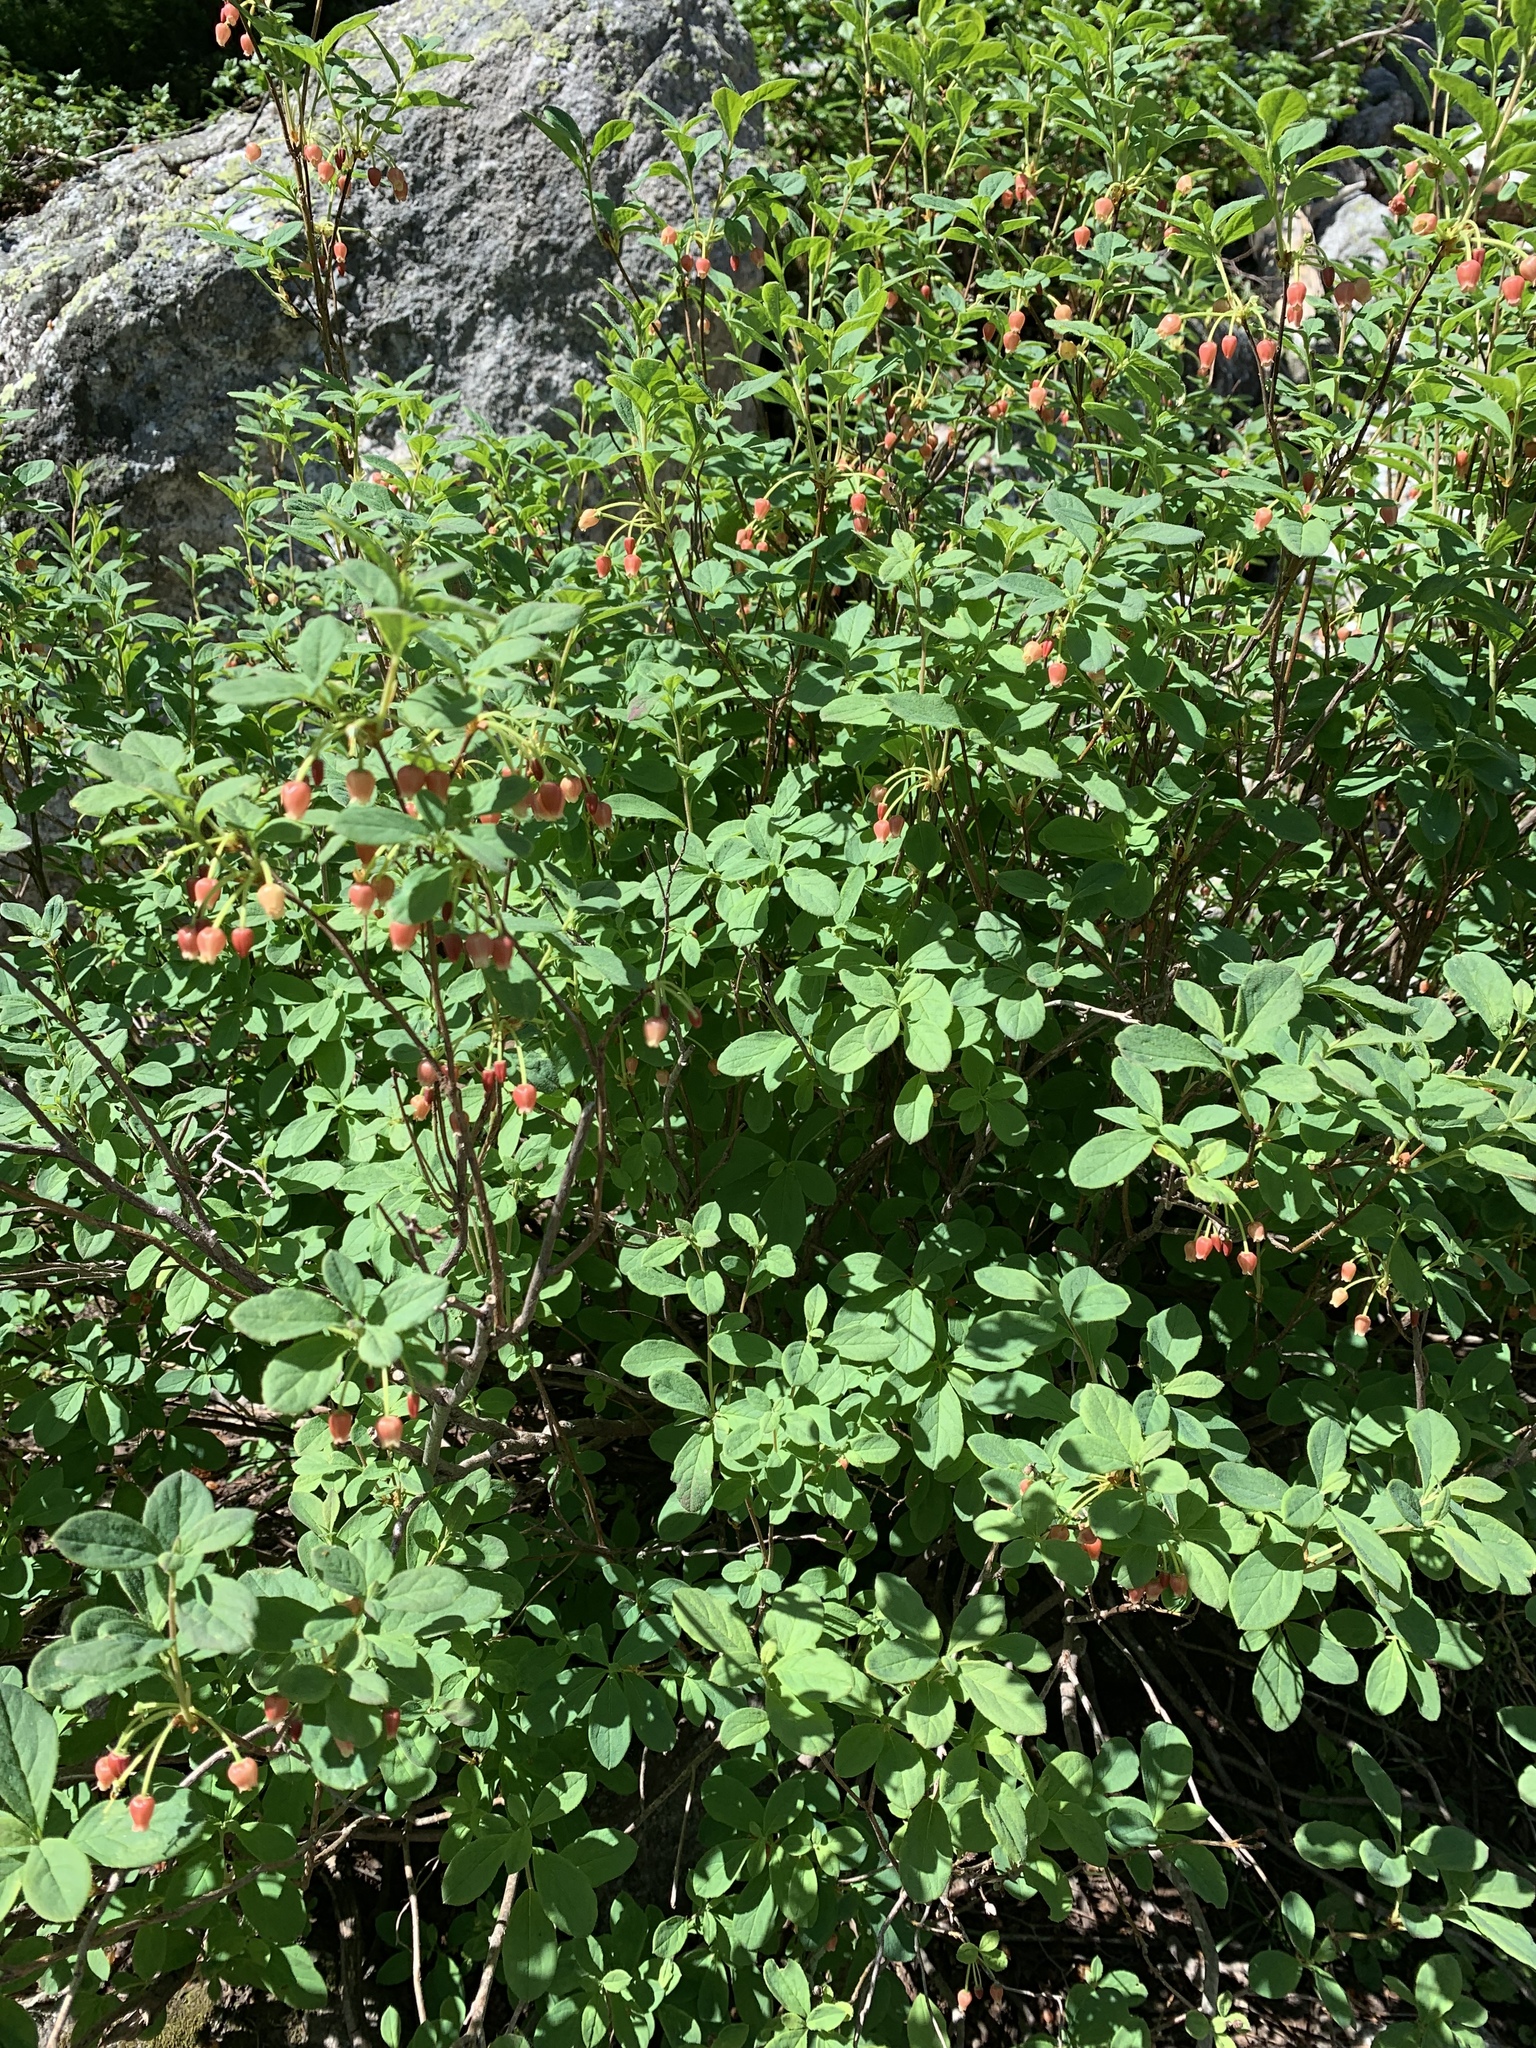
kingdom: Plantae
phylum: Tracheophyta
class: Magnoliopsida
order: Ericales
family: Ericaceae
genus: Rhododendron
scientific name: Rhododendron menziesii
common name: Pacific menziesia
